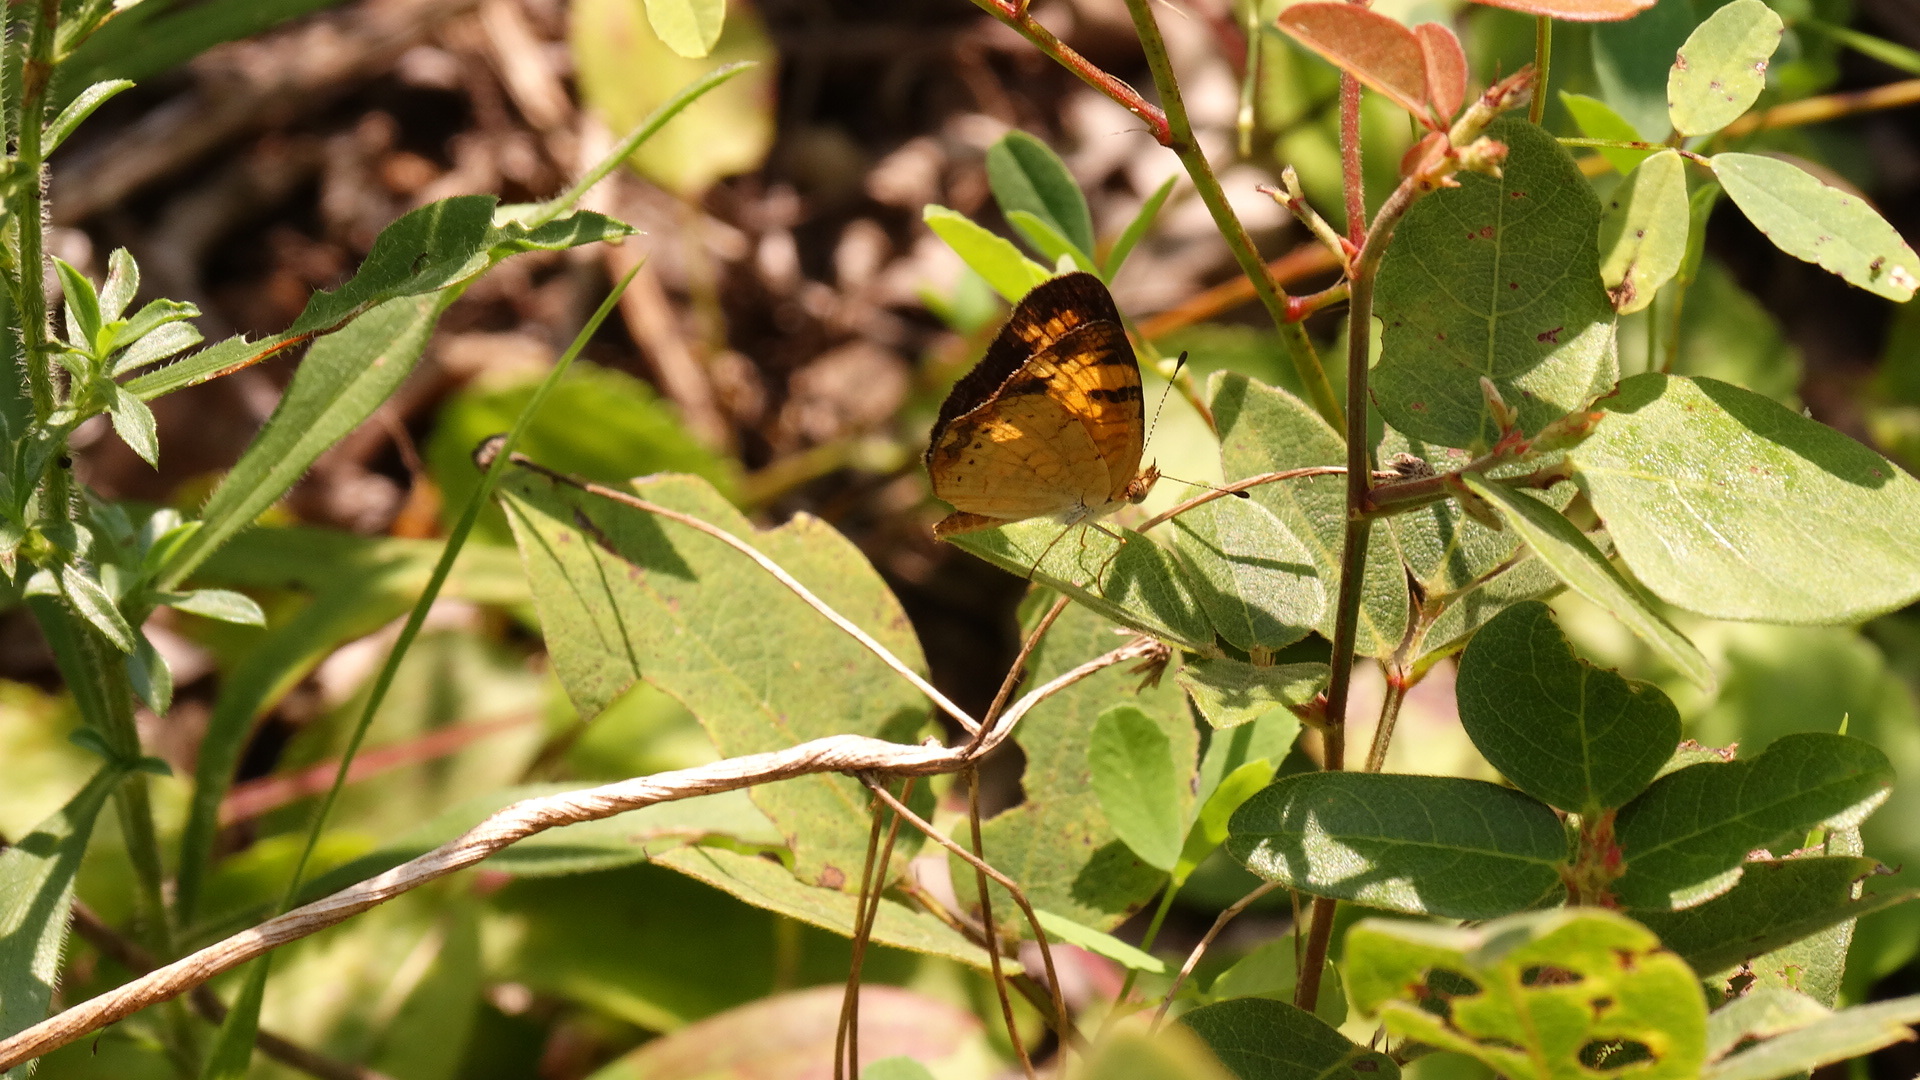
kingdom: Animalia
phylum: Arthropoda
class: Insecta
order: Lepidoptera
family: Nymphalidae
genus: Phyciodes
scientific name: Phyciodes tharos
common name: Pearl crescent
